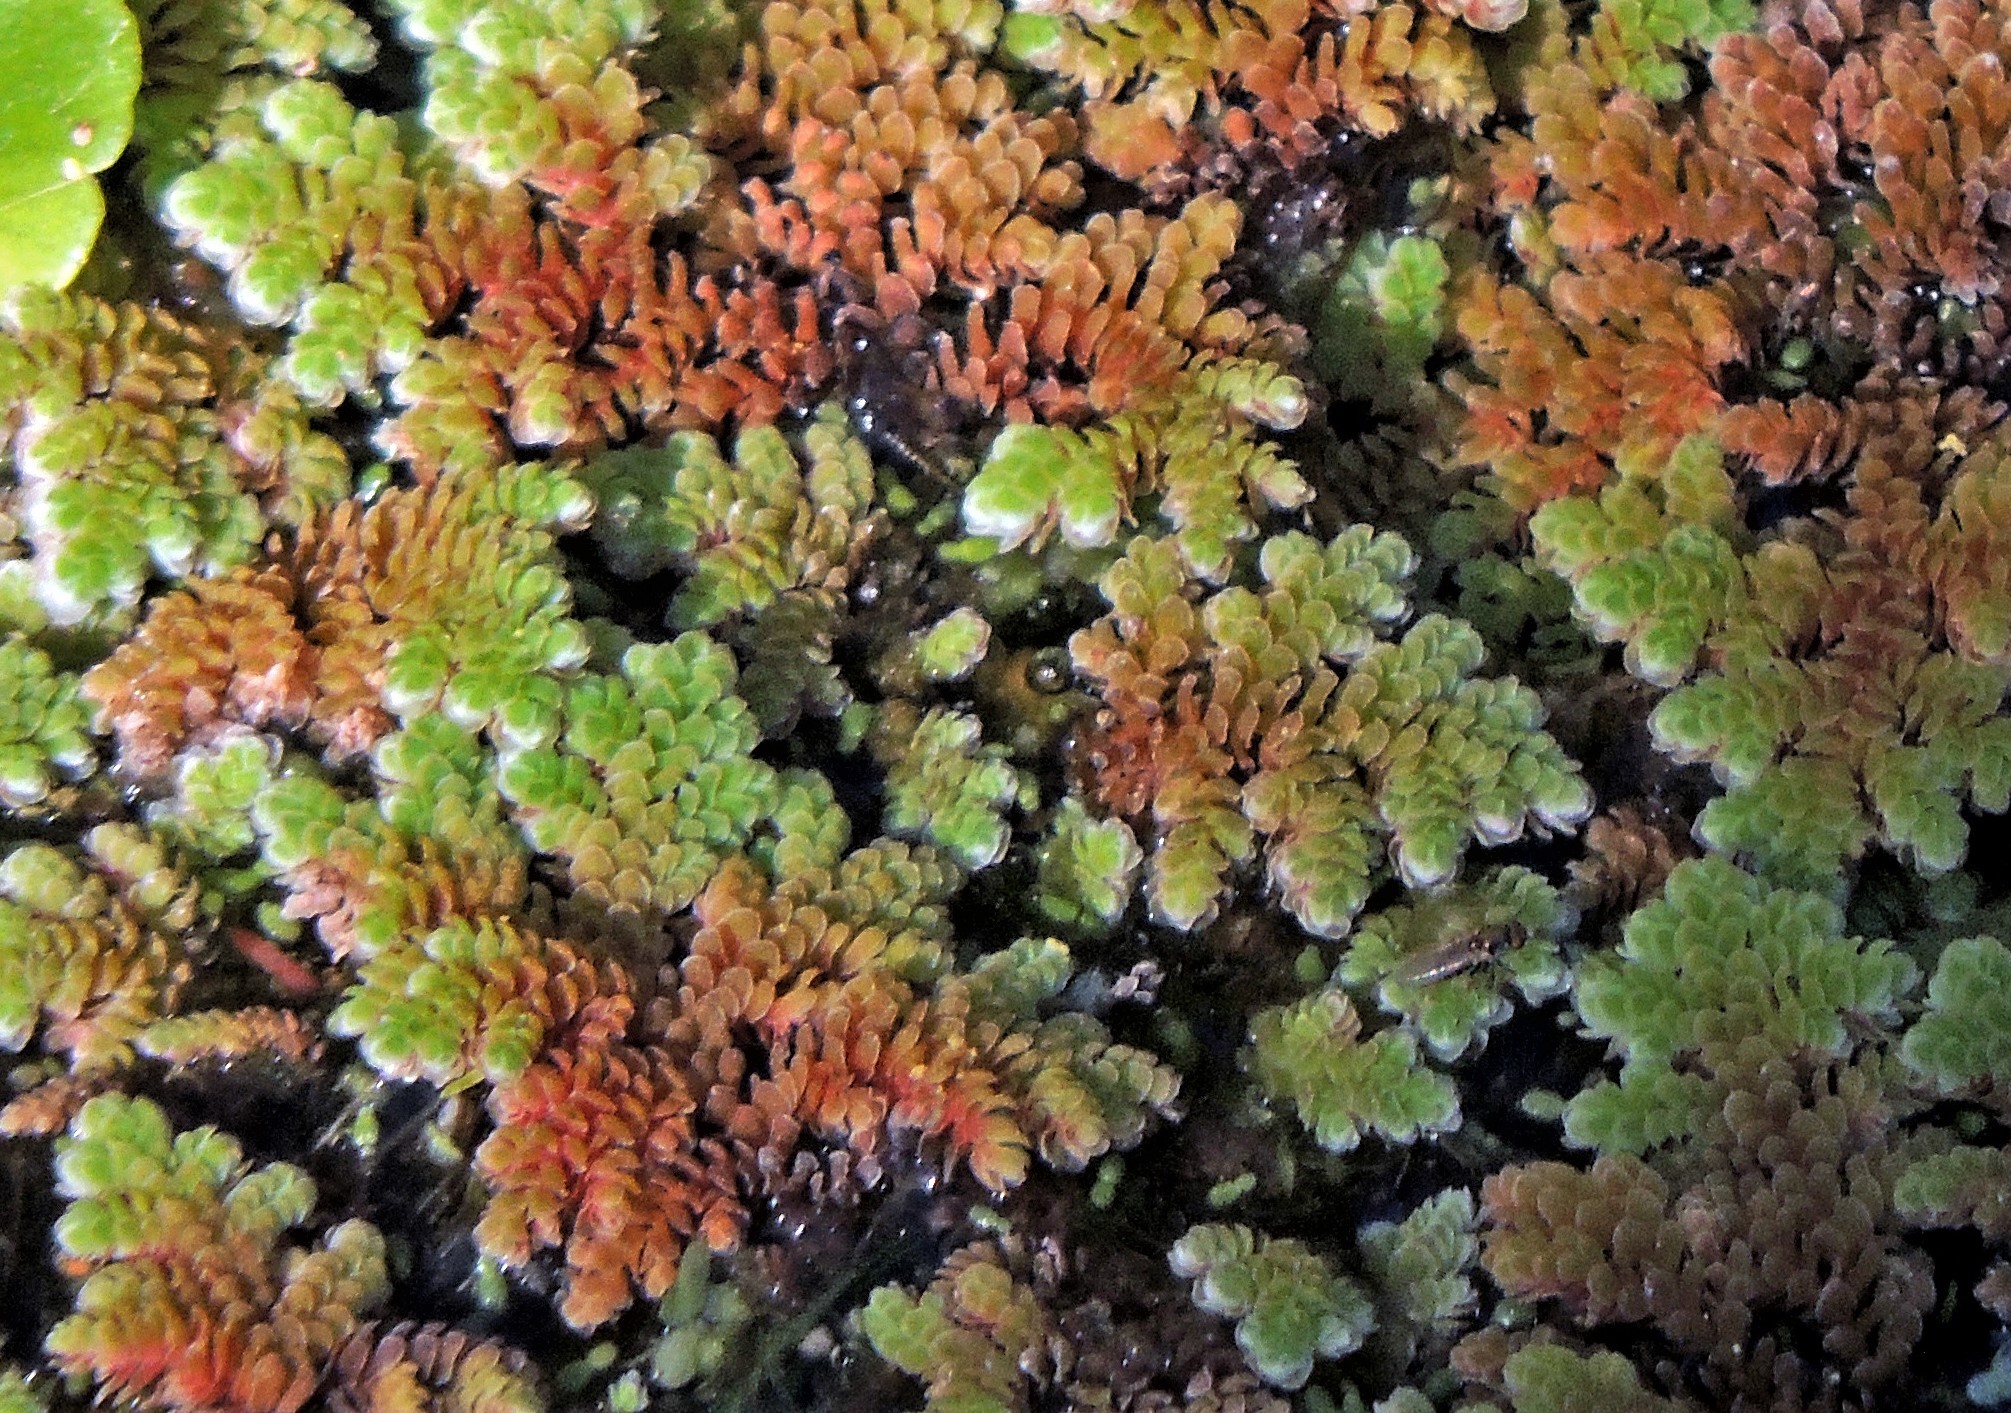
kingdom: Plantae
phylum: Tracheophyta
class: Polypodiopsida
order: Salviniales
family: Salviniaceae
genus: Azolla
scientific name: Azolla filiculoides
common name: Water fern
